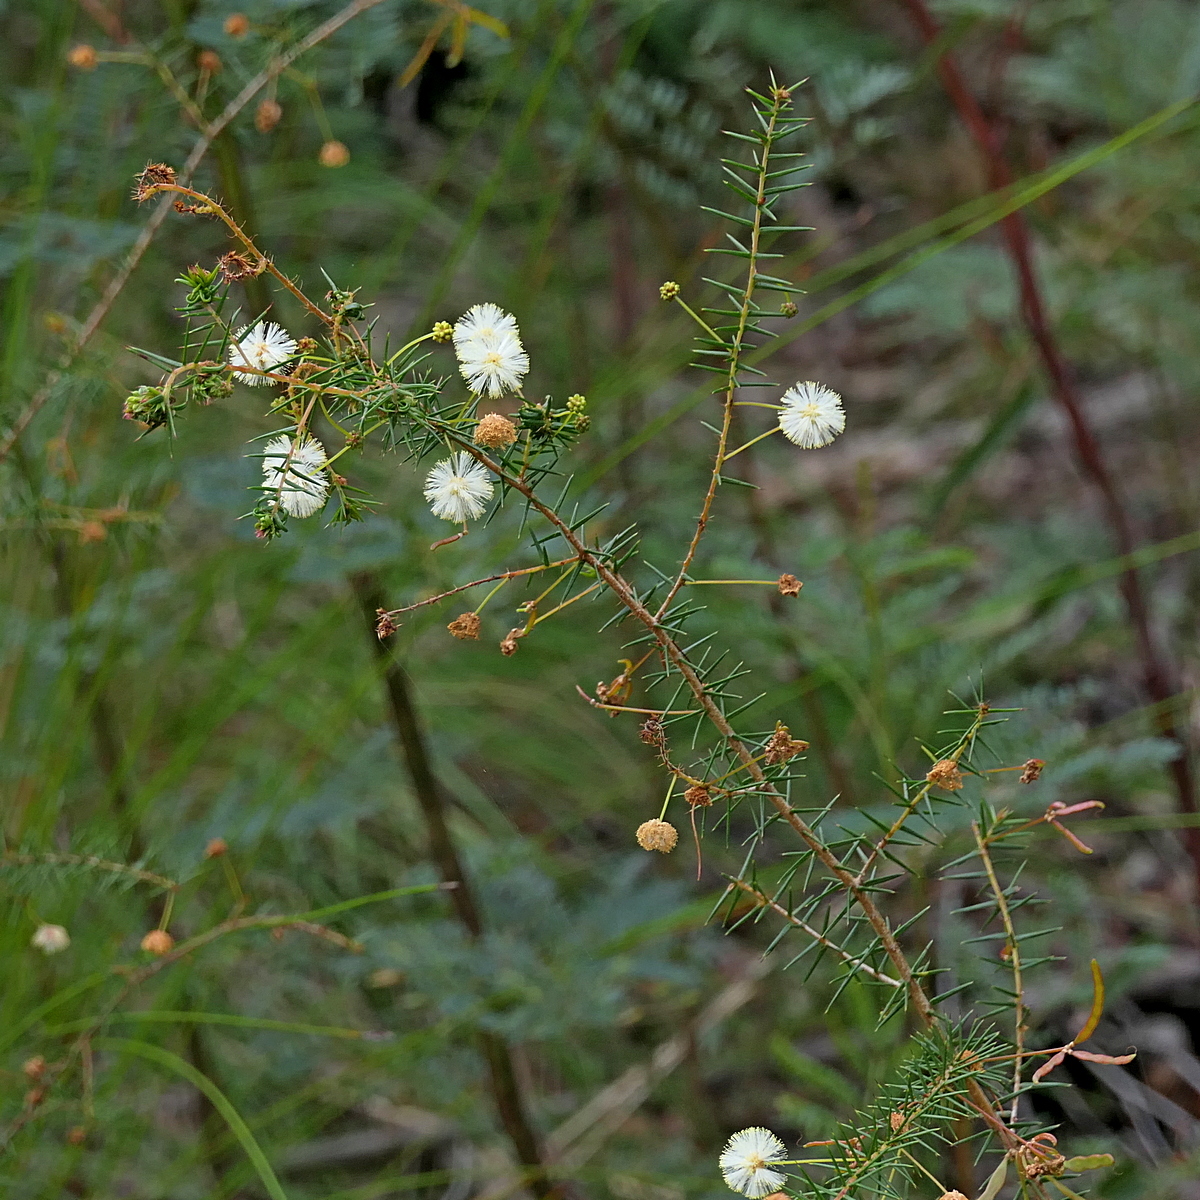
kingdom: Plantae
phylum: Tracheophyta
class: Magnoliopsida
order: Fabales
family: Fabaceae
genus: Acacia
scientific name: Acacia ulicifolia
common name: Juniper wattle
